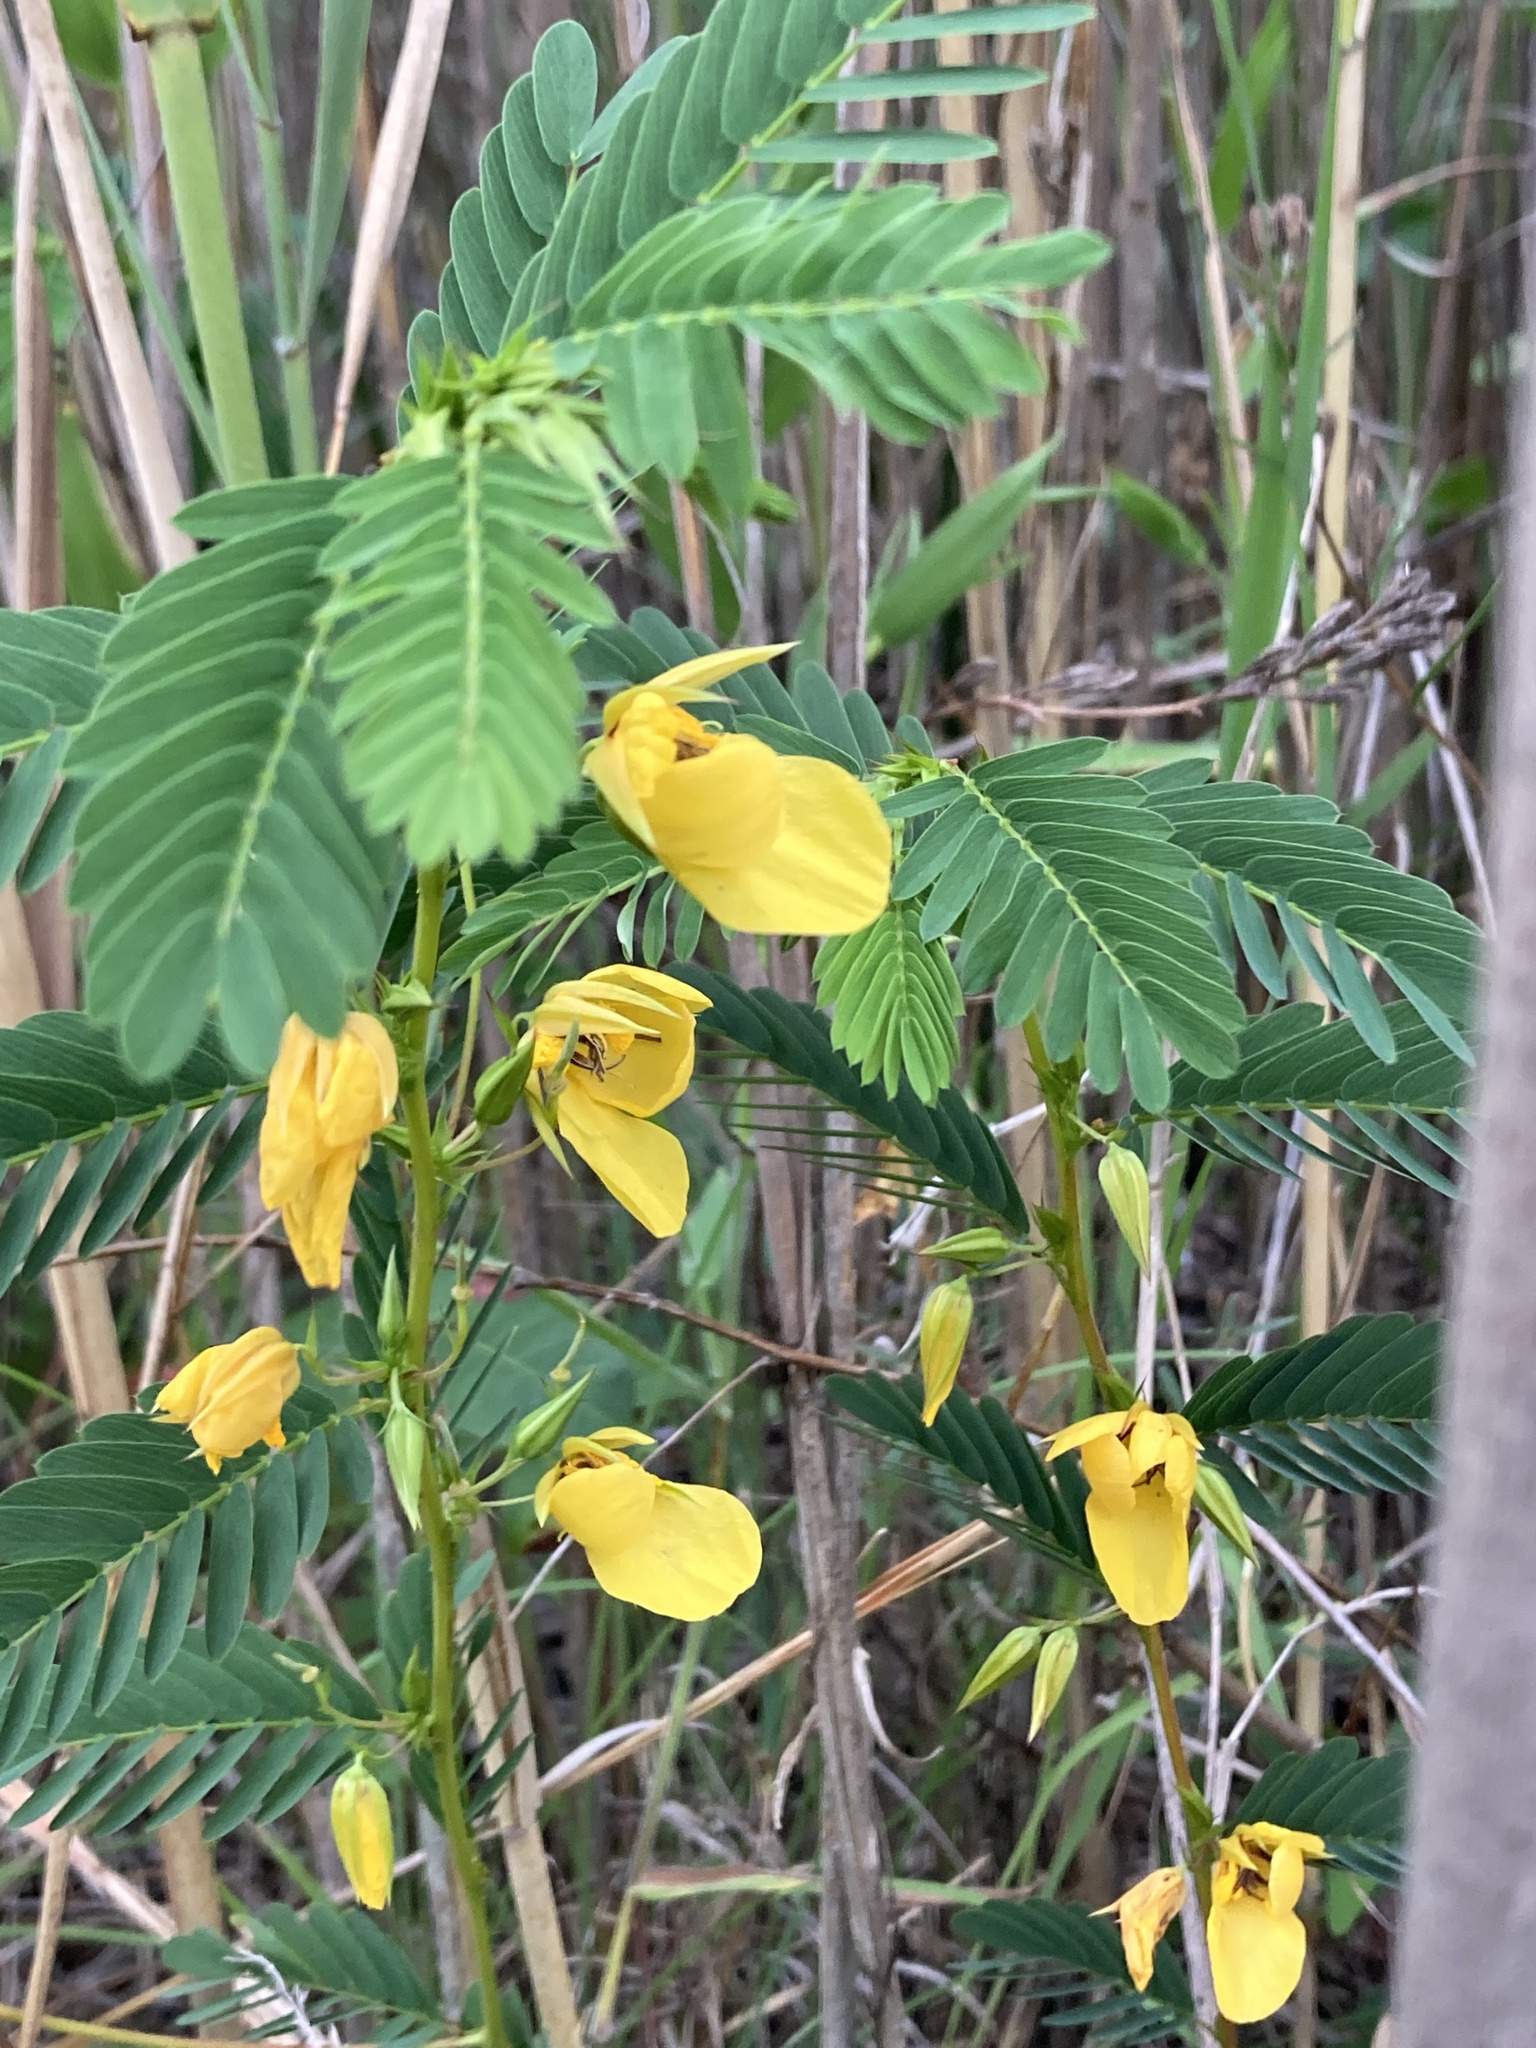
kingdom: Plantae
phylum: Tracheophyta
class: Magnoliopsida
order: Fabales
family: Fabaceae
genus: Chamaecrista
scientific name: Chamaecrista fasciculata
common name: Golden cassia
